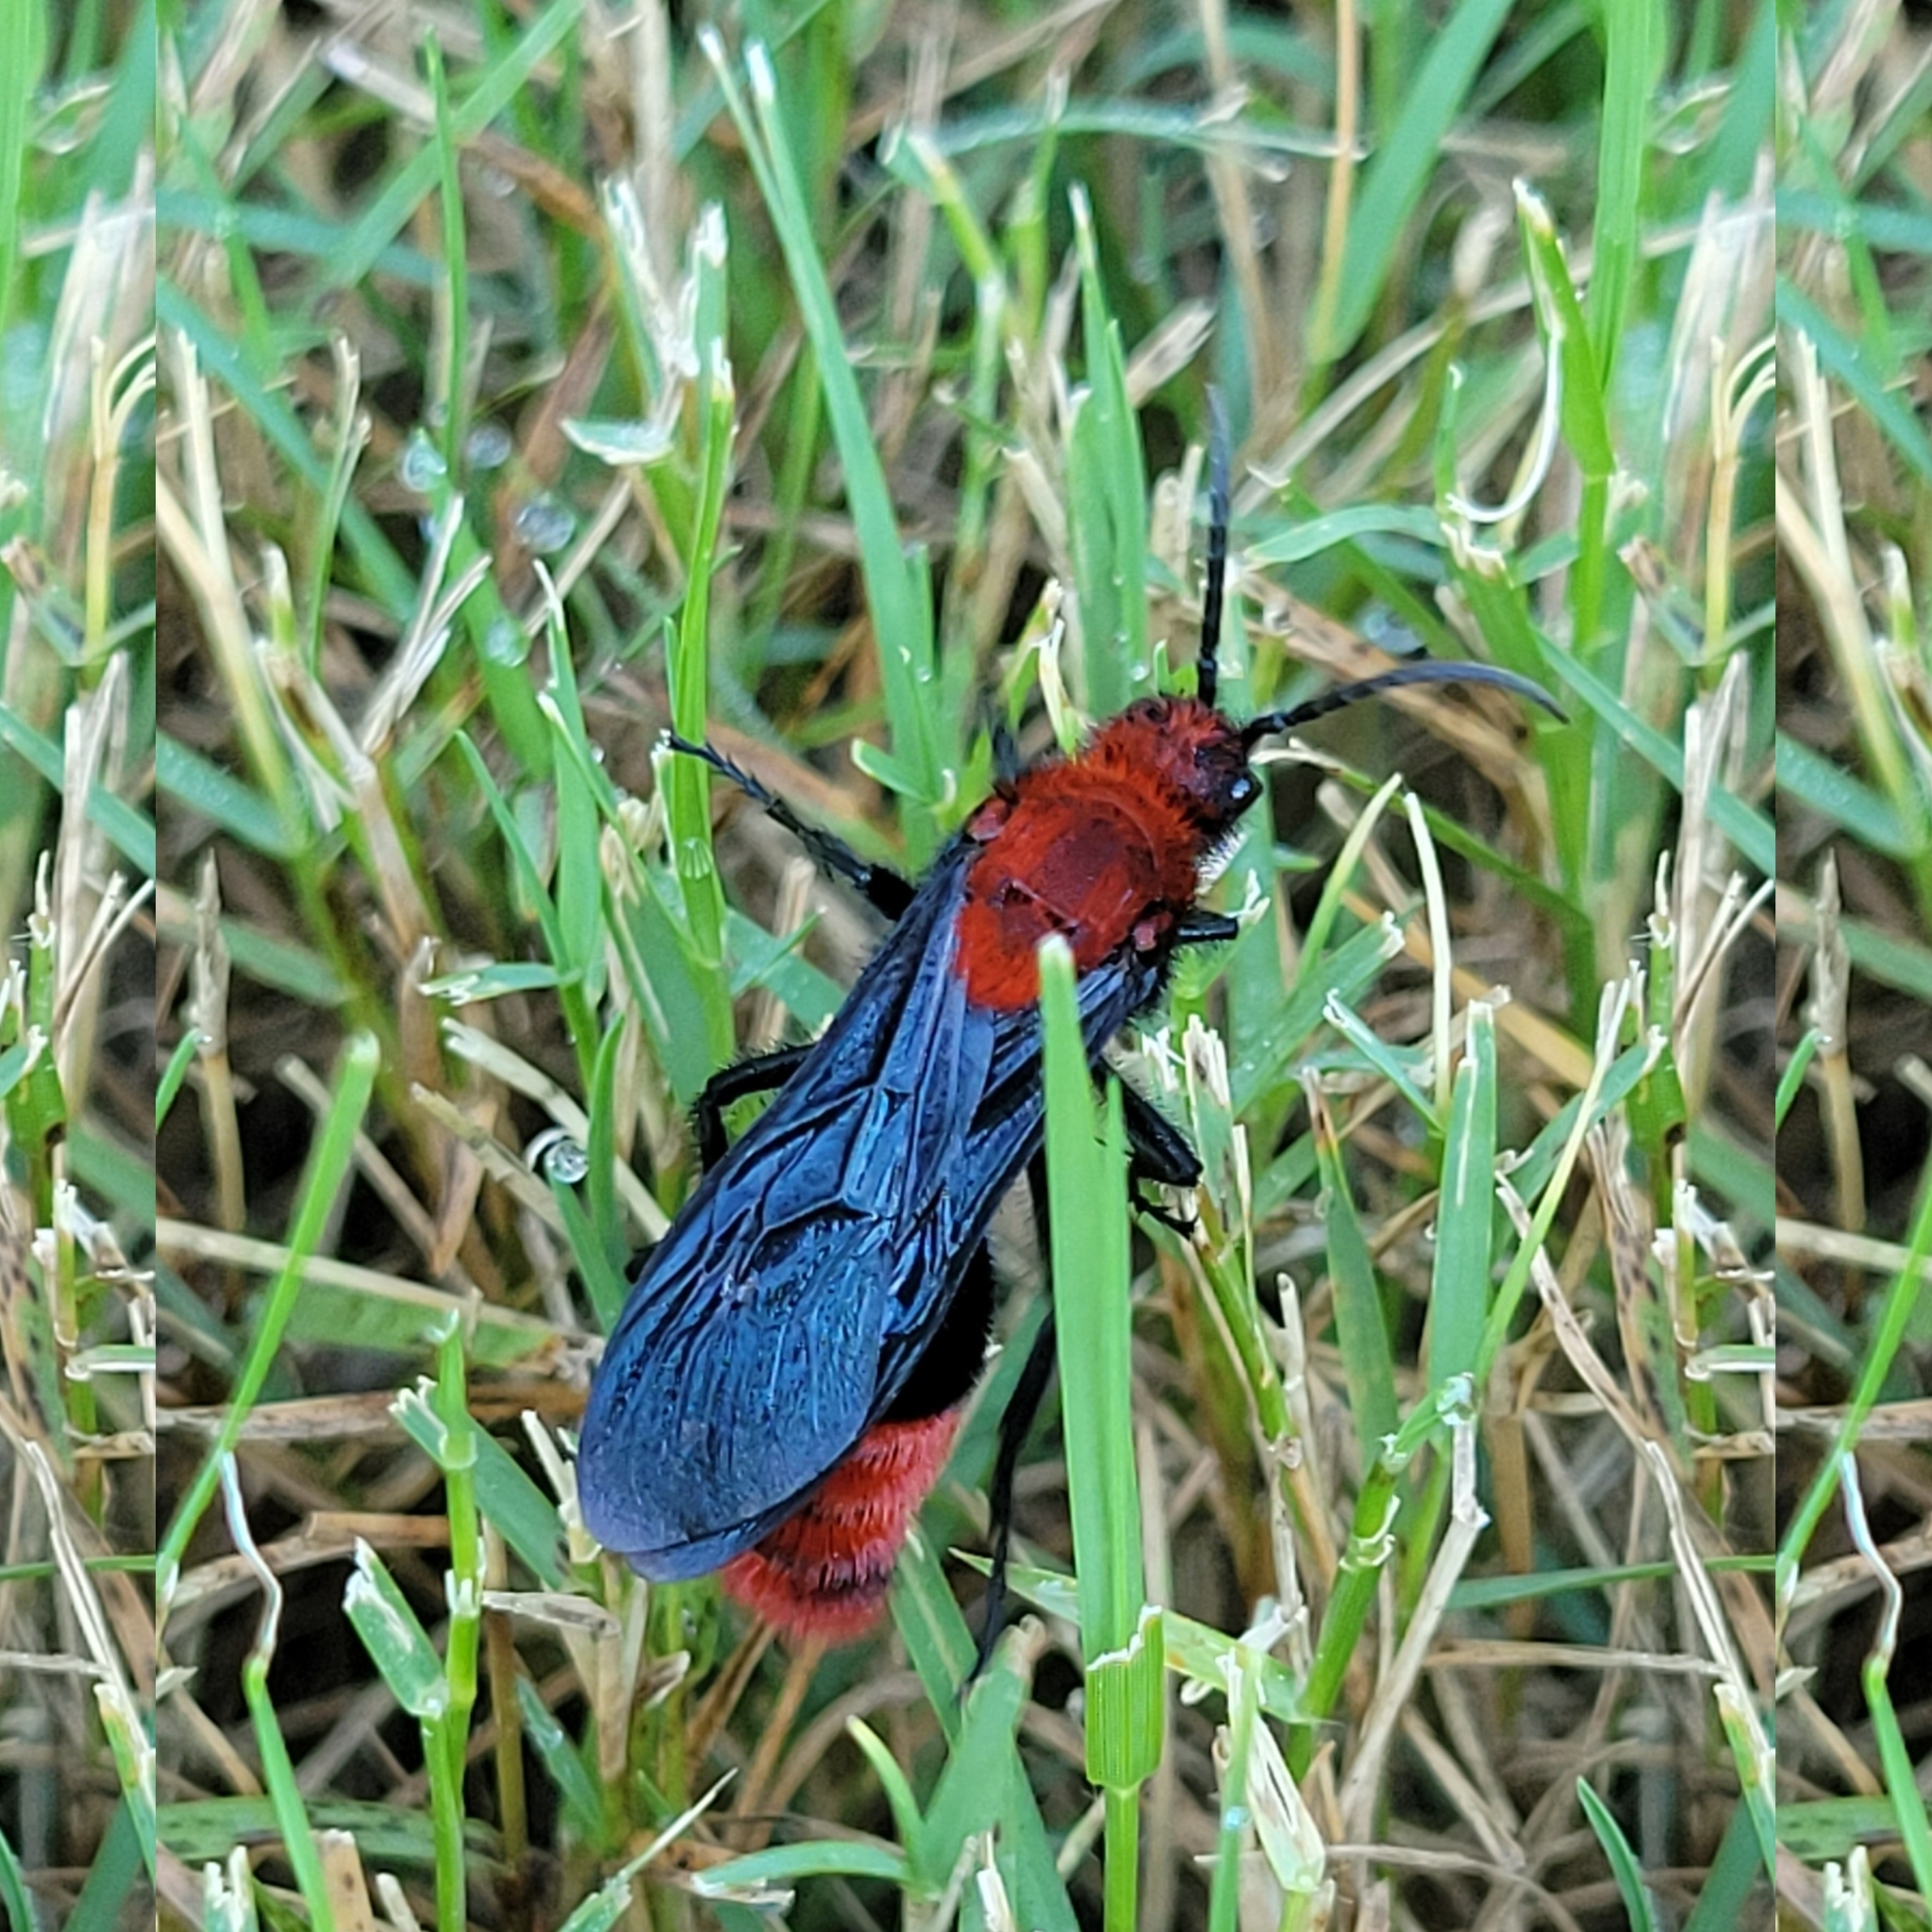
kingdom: Animalia
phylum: Arthropoda
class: Insecta
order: Hymenoptera
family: Mutillidae
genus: Dasymutilla
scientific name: Dasymutilla occidentalis
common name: Common eastern velvet ant
